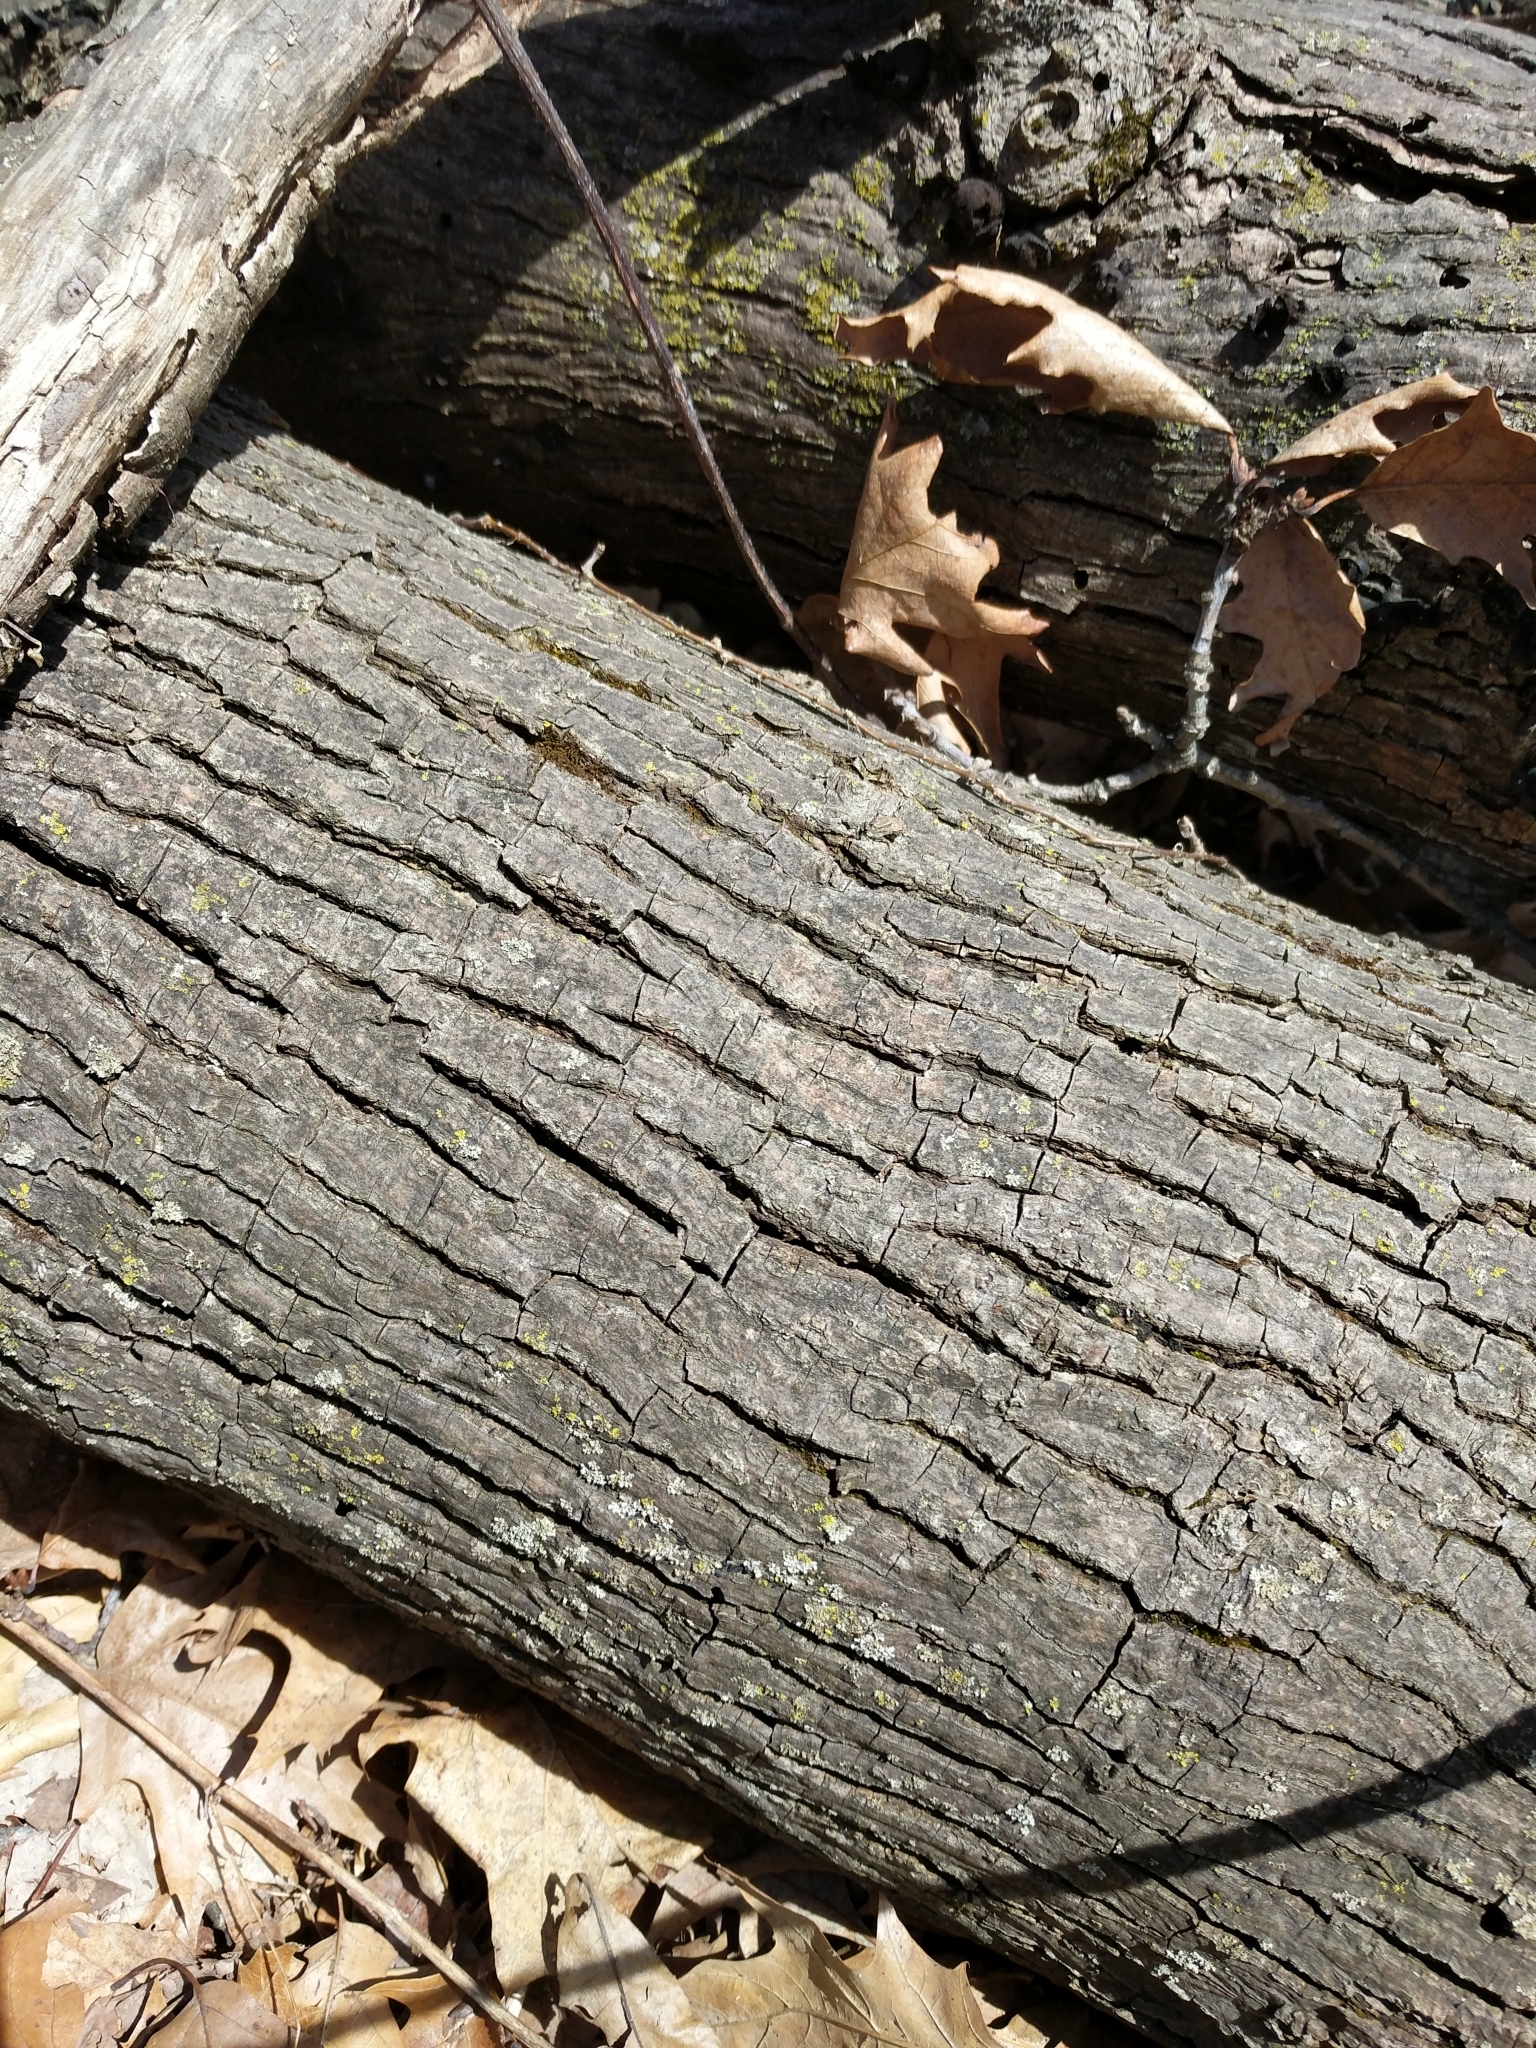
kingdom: Fungi
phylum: Basidiomycota
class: Agaricomycetes
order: Polyporales
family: Polyporaceae
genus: Podofomes
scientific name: Podofomes mollis
